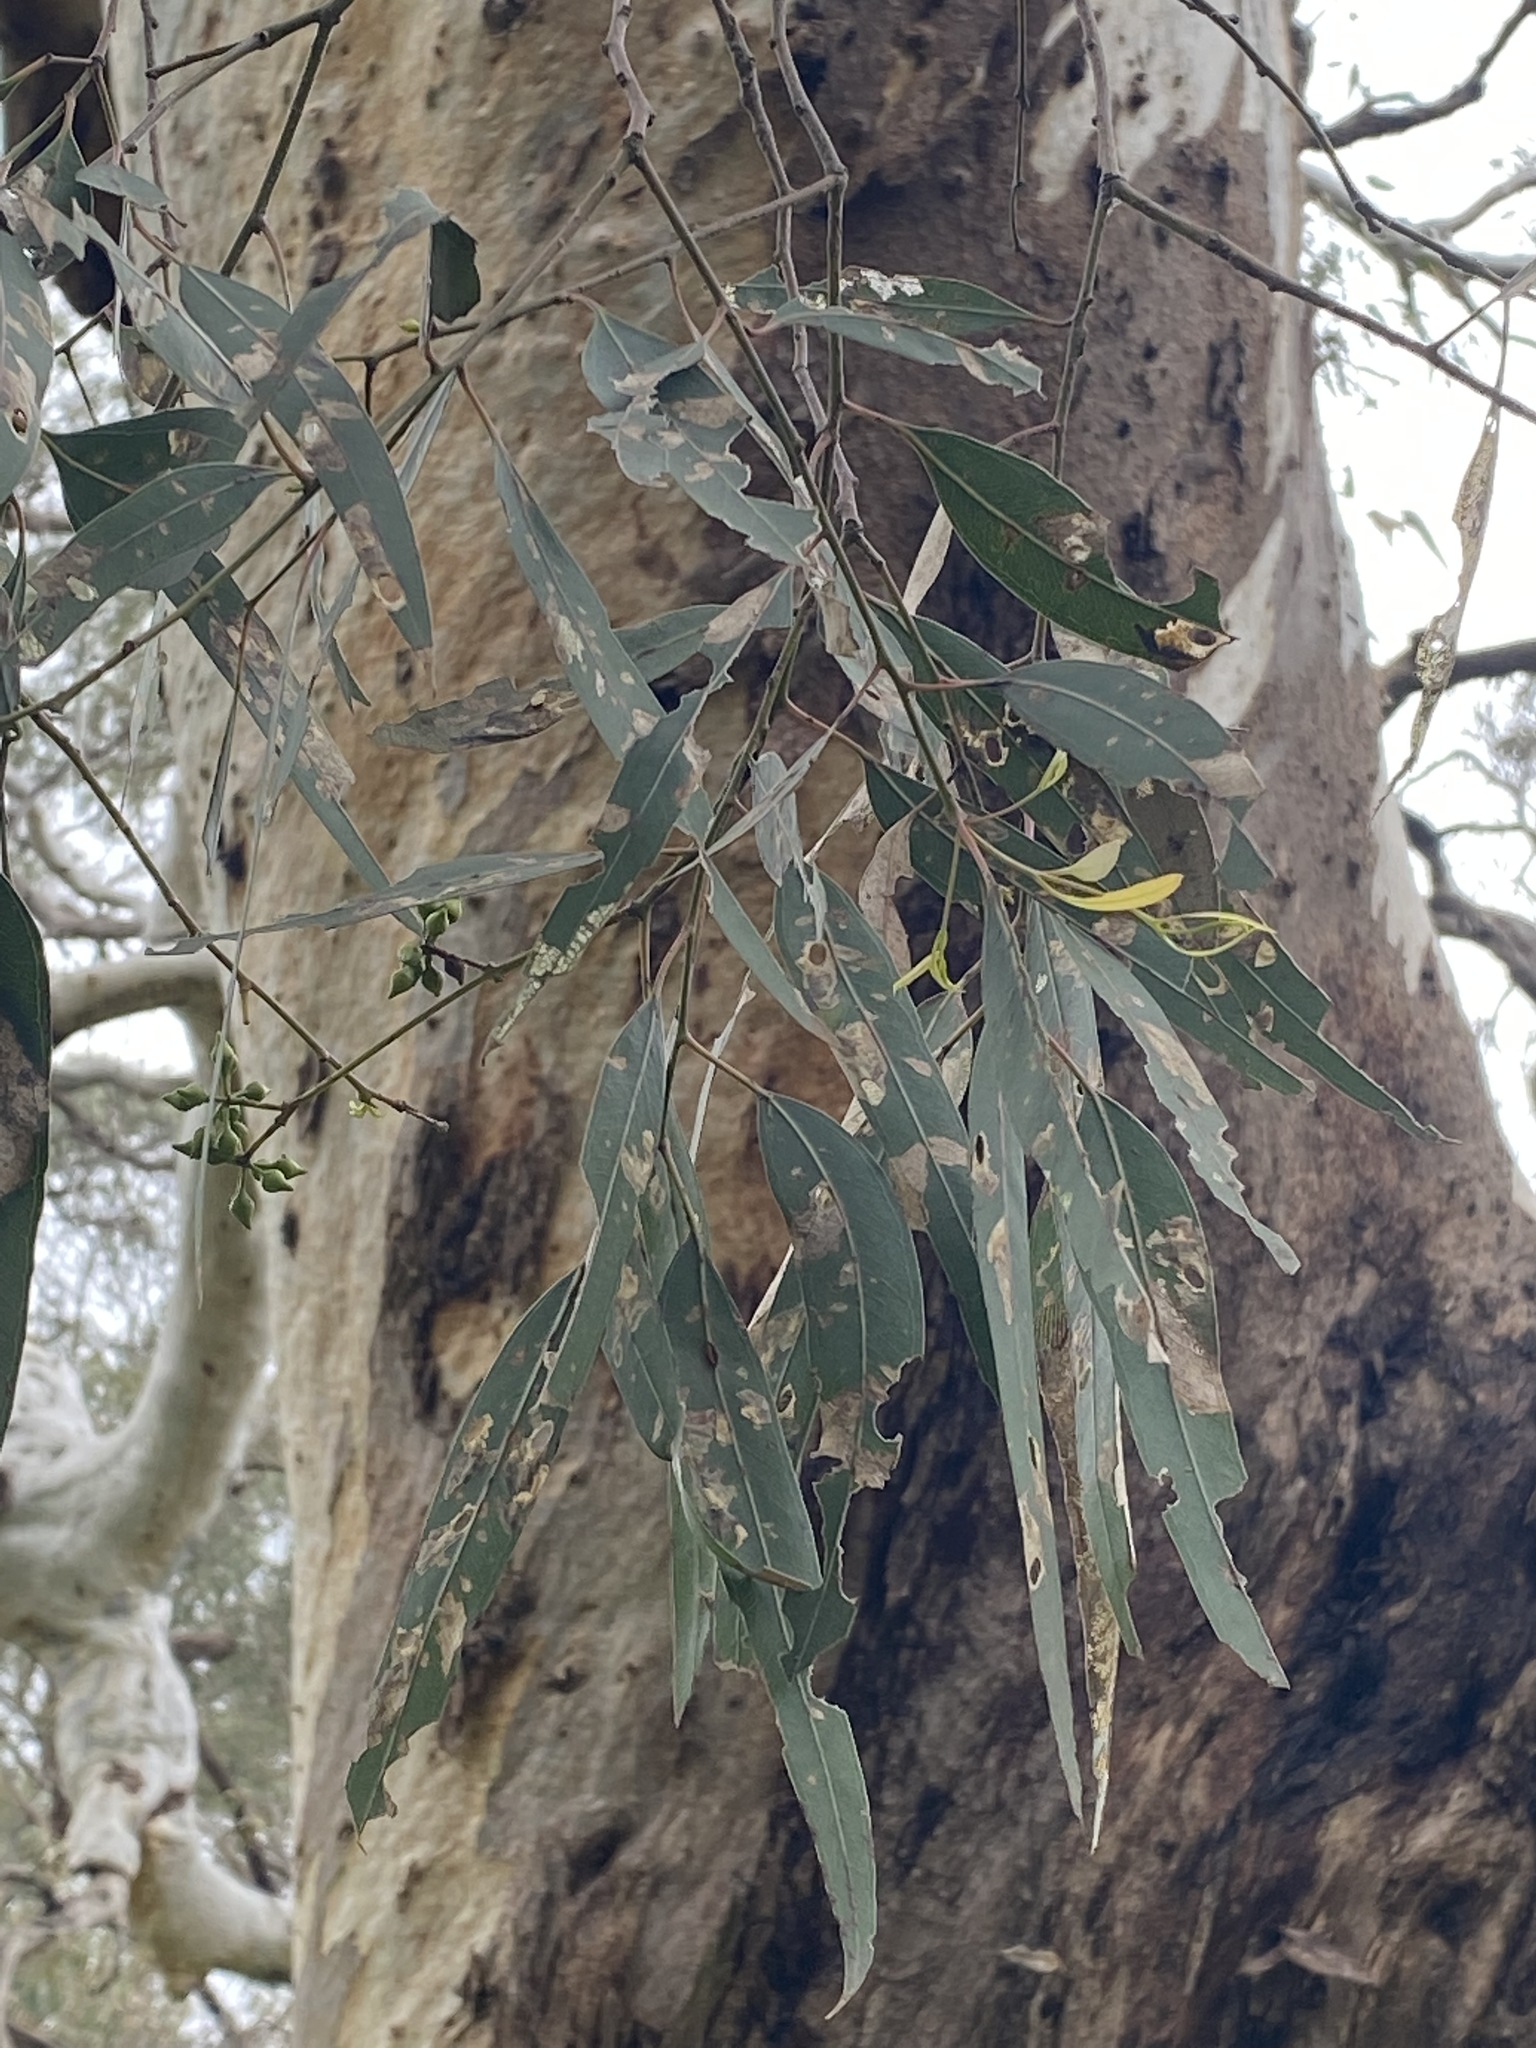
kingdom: Plantae
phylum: Tracheophyta
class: Magnoliopsida
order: Myrtales
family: Myrtaceae
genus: Eucalyptus
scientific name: Eucalyptus camaldulensis
